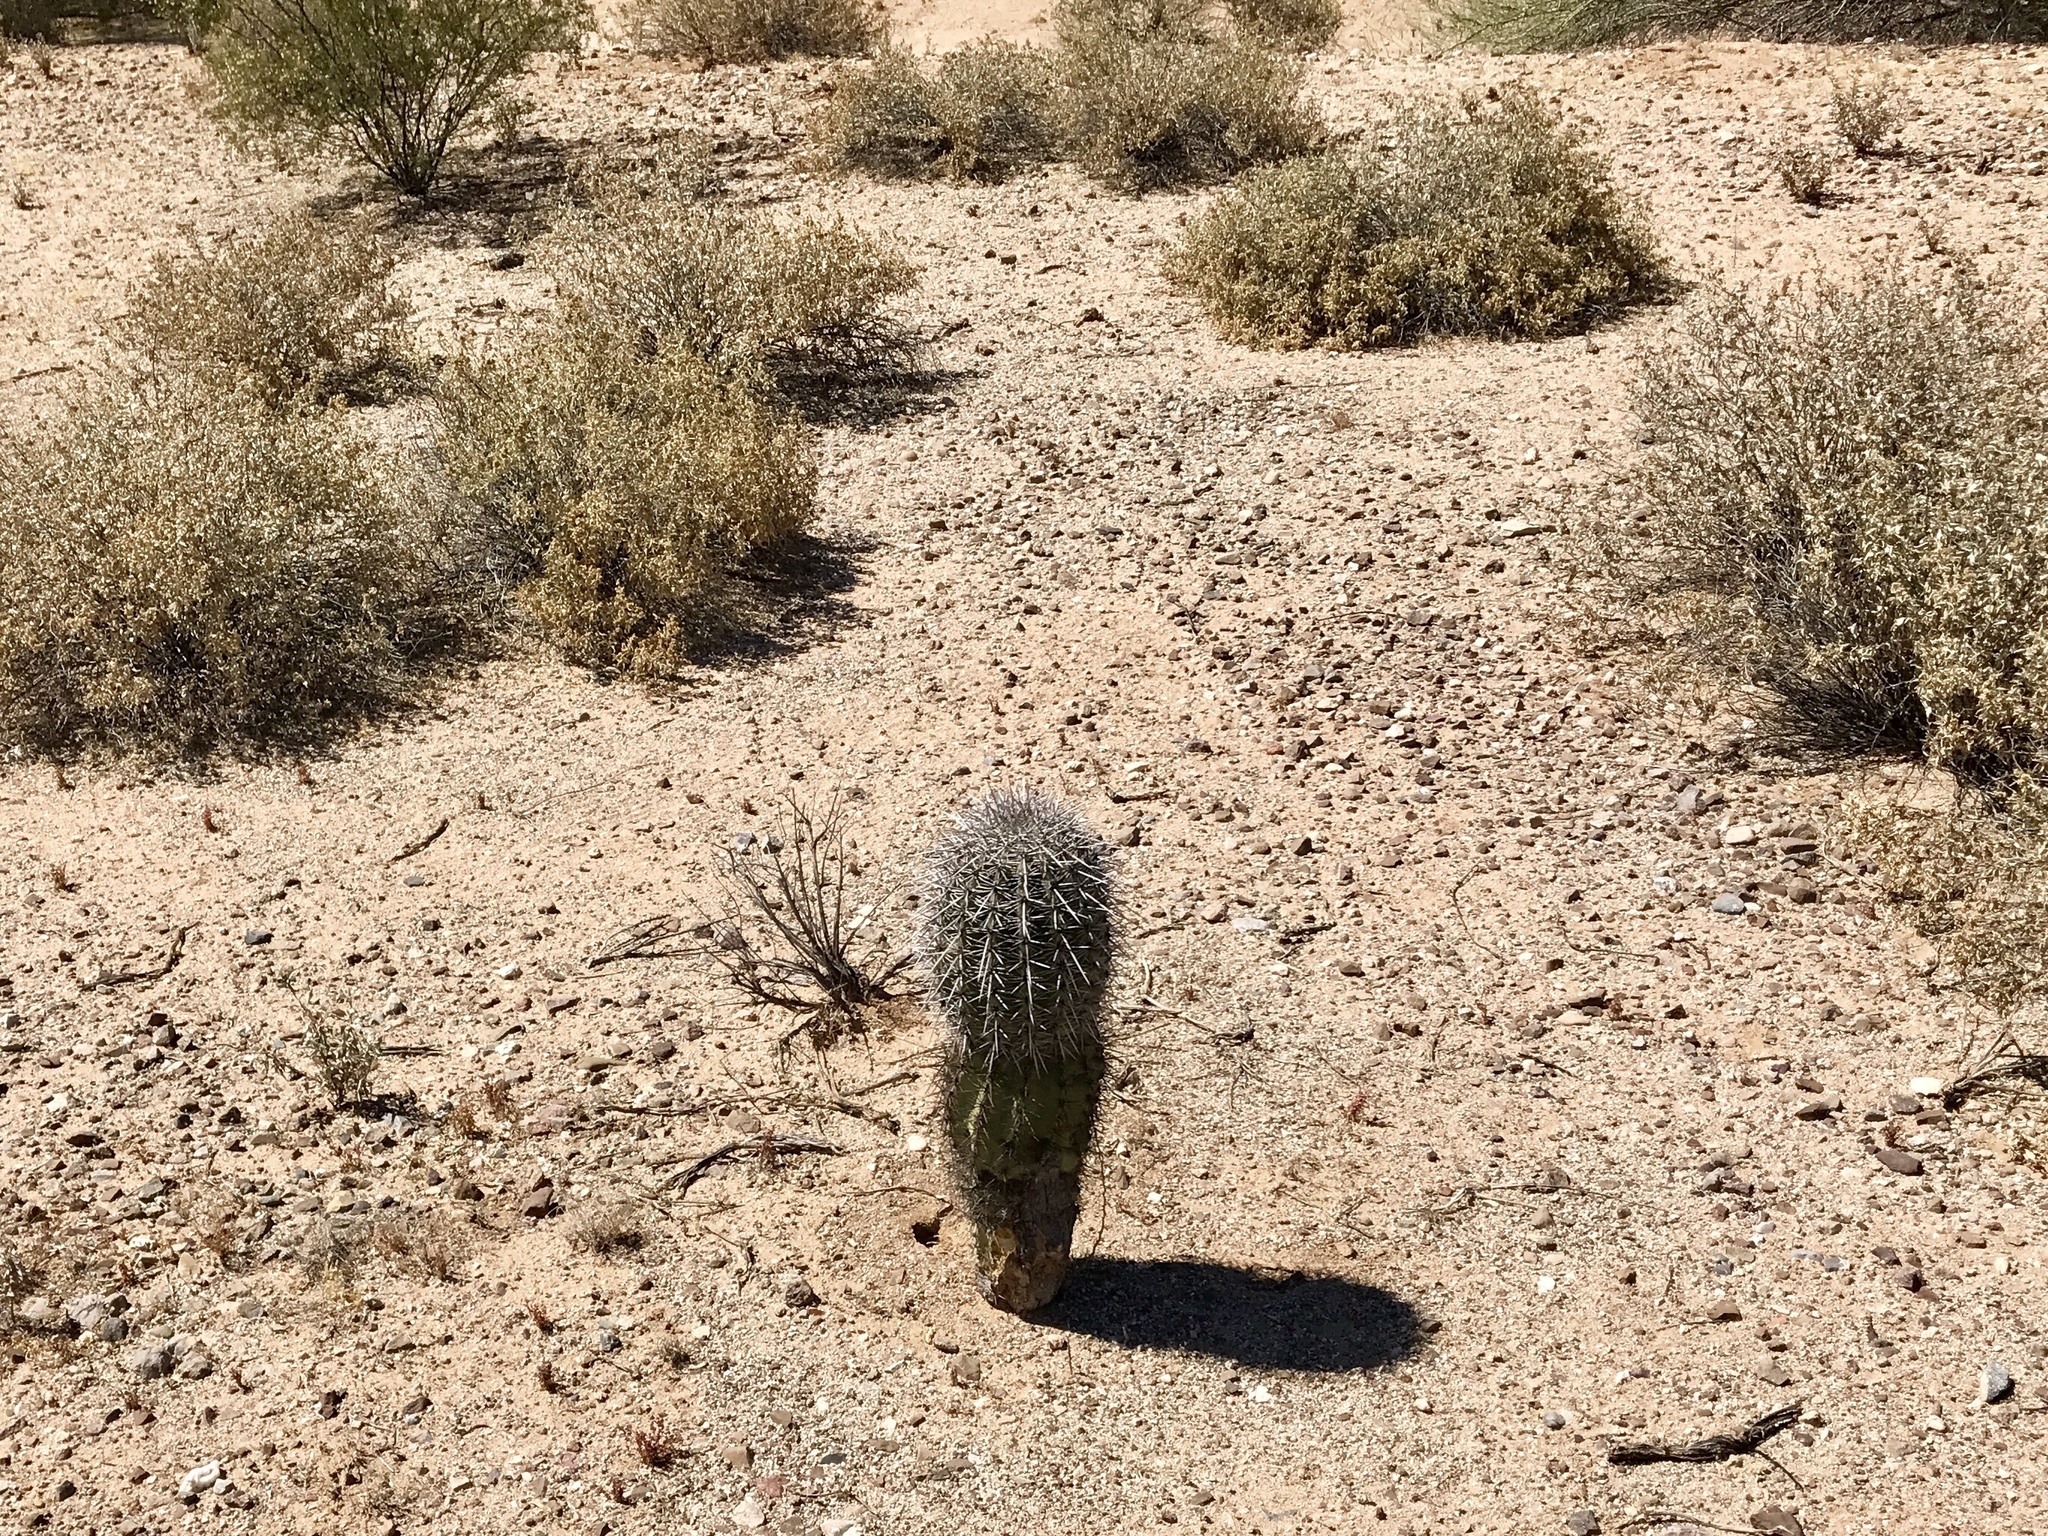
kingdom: Plantae
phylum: Tracheophyta
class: Magnoliopsida
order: Caryophyllales
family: Cactaceae
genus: Carnegiea
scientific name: Carnegiea gigantea
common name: Saguaro
